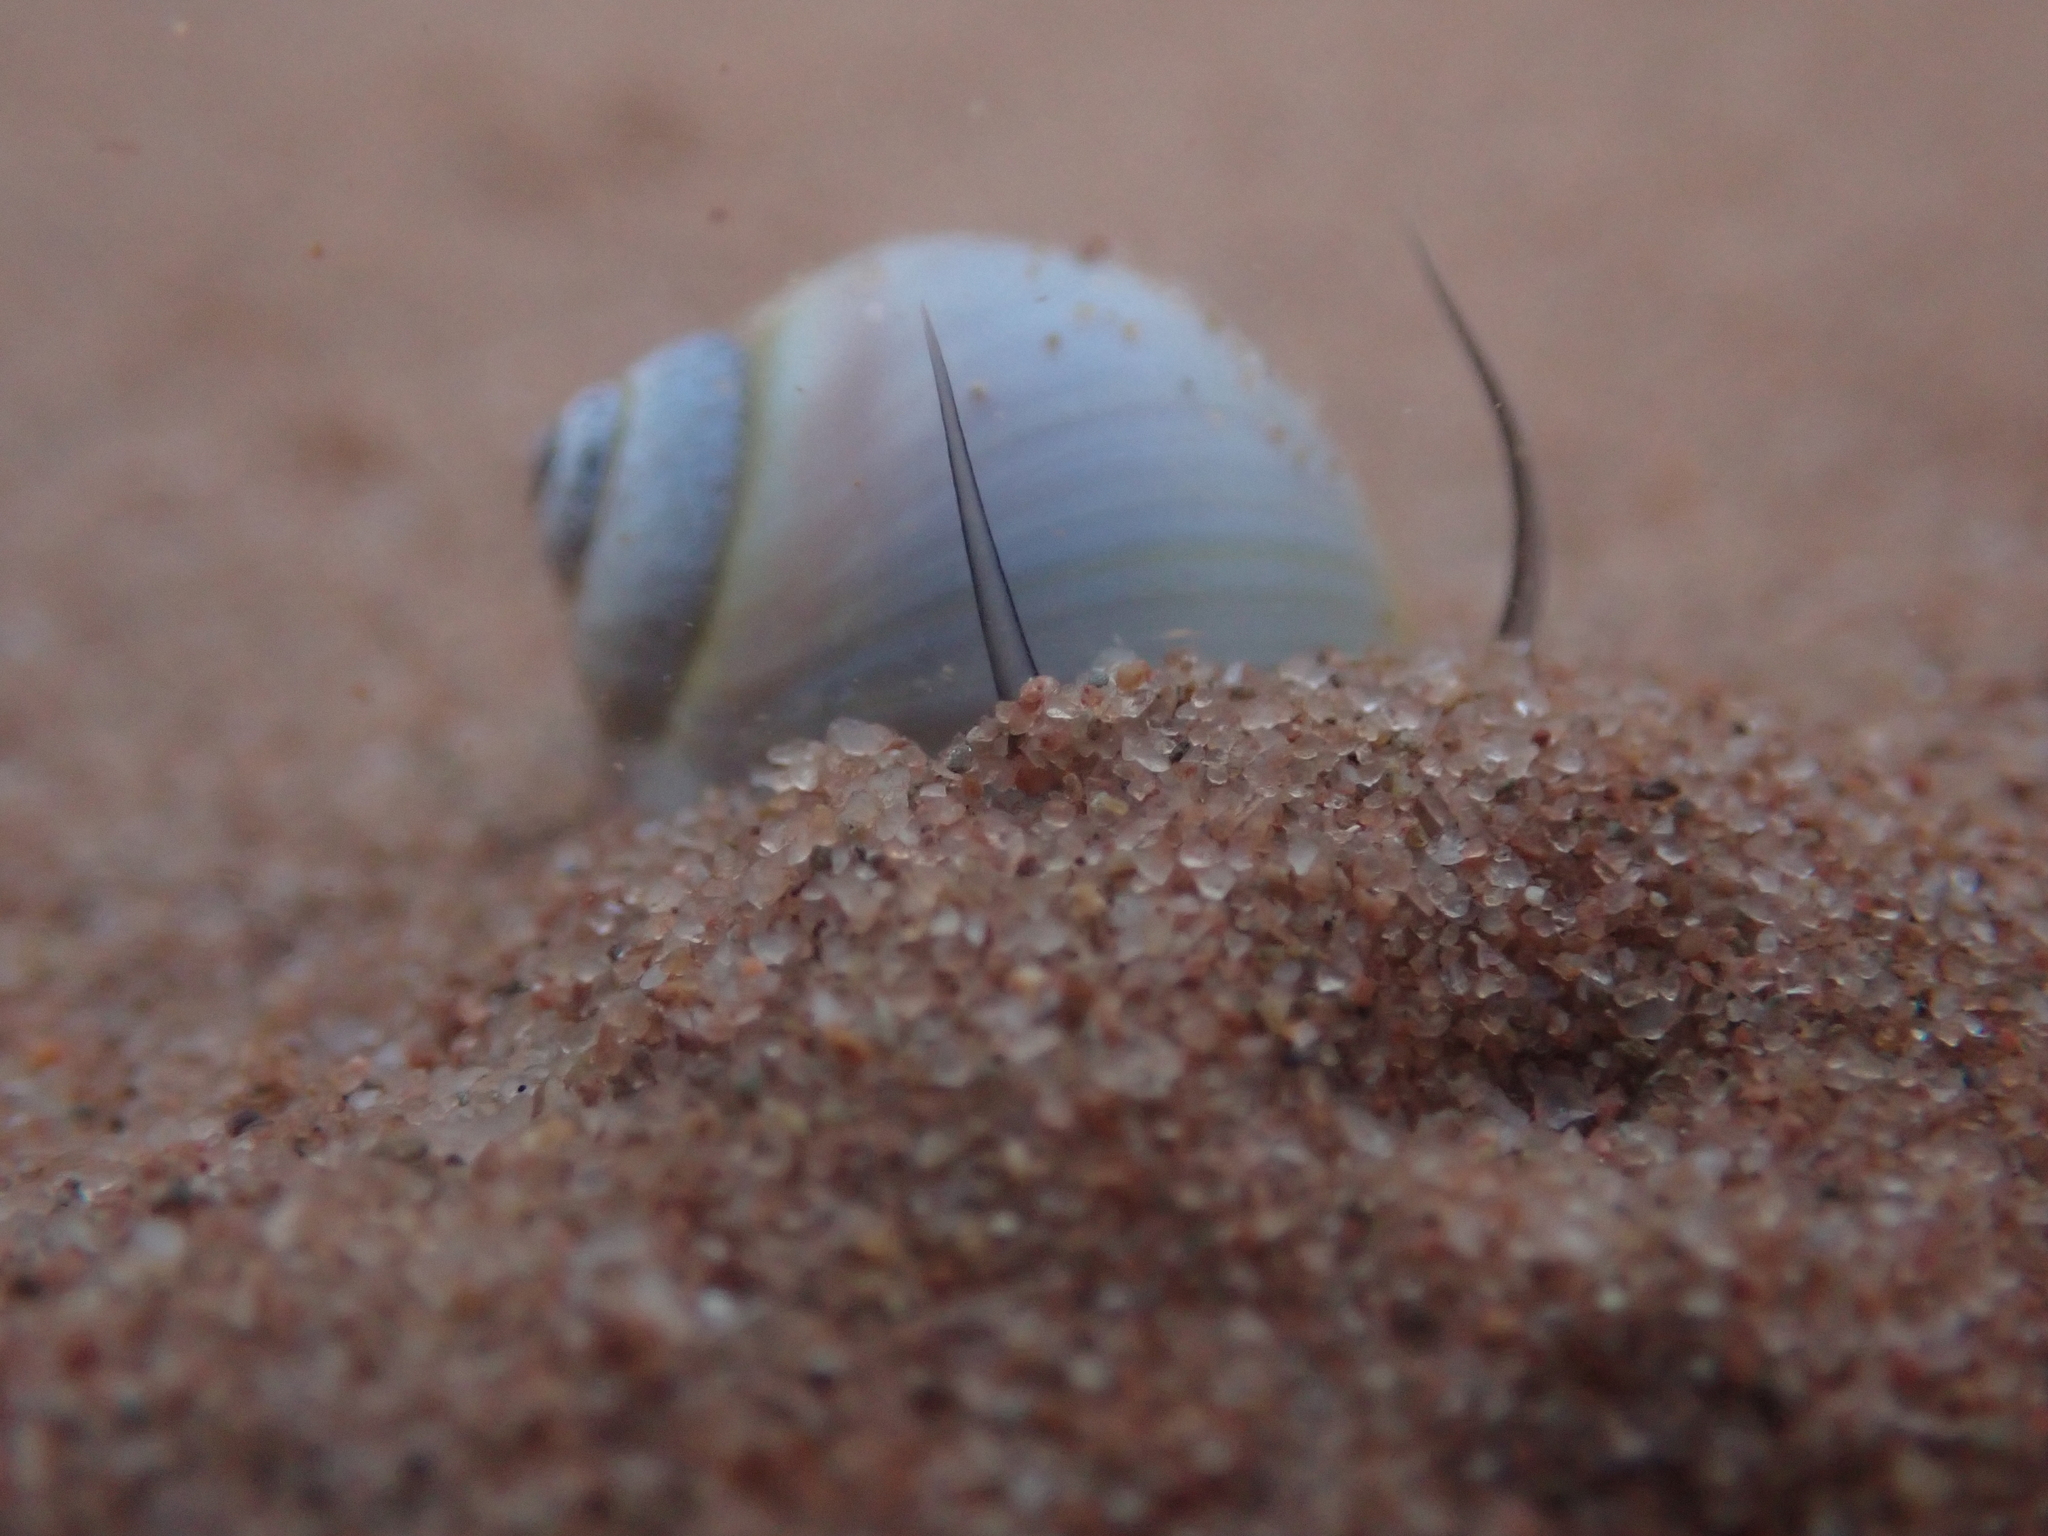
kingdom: Animalia
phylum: Mollusca
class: Gastropoda
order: Littorinimorpha
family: Naticidae
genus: Euspira
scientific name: Euspira heros
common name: Common northern moonsnail
